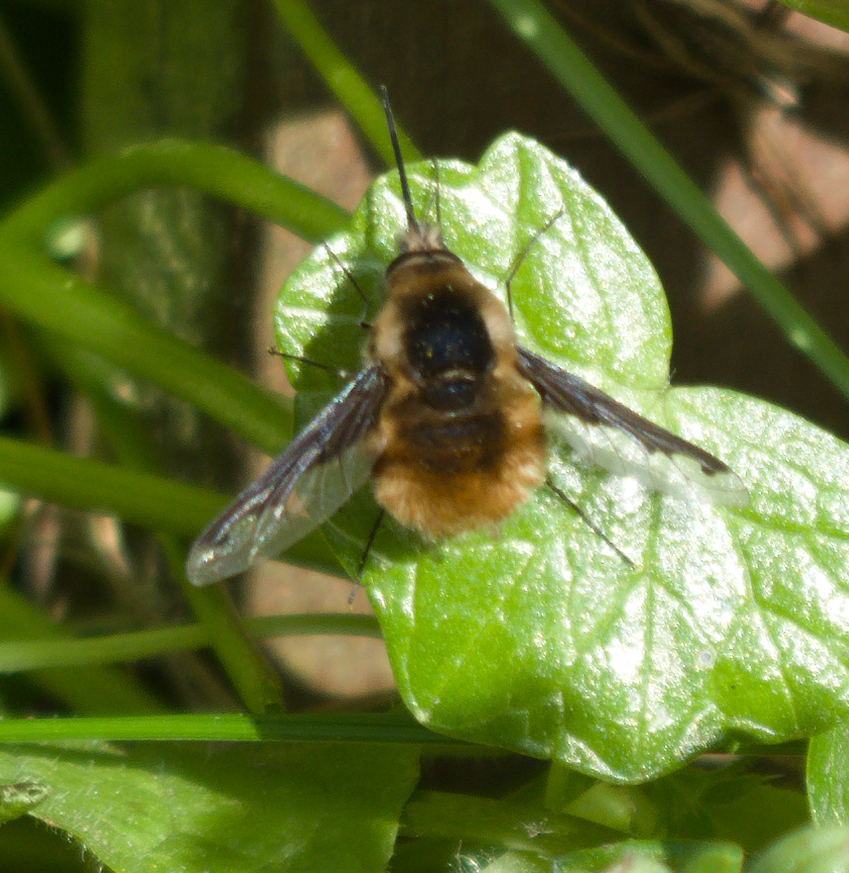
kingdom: Animalia
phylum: Arthropoda
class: Insecta
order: Diptera
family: Bombyliidae
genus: Bombylius
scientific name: Bombylius major
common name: Bee fly
